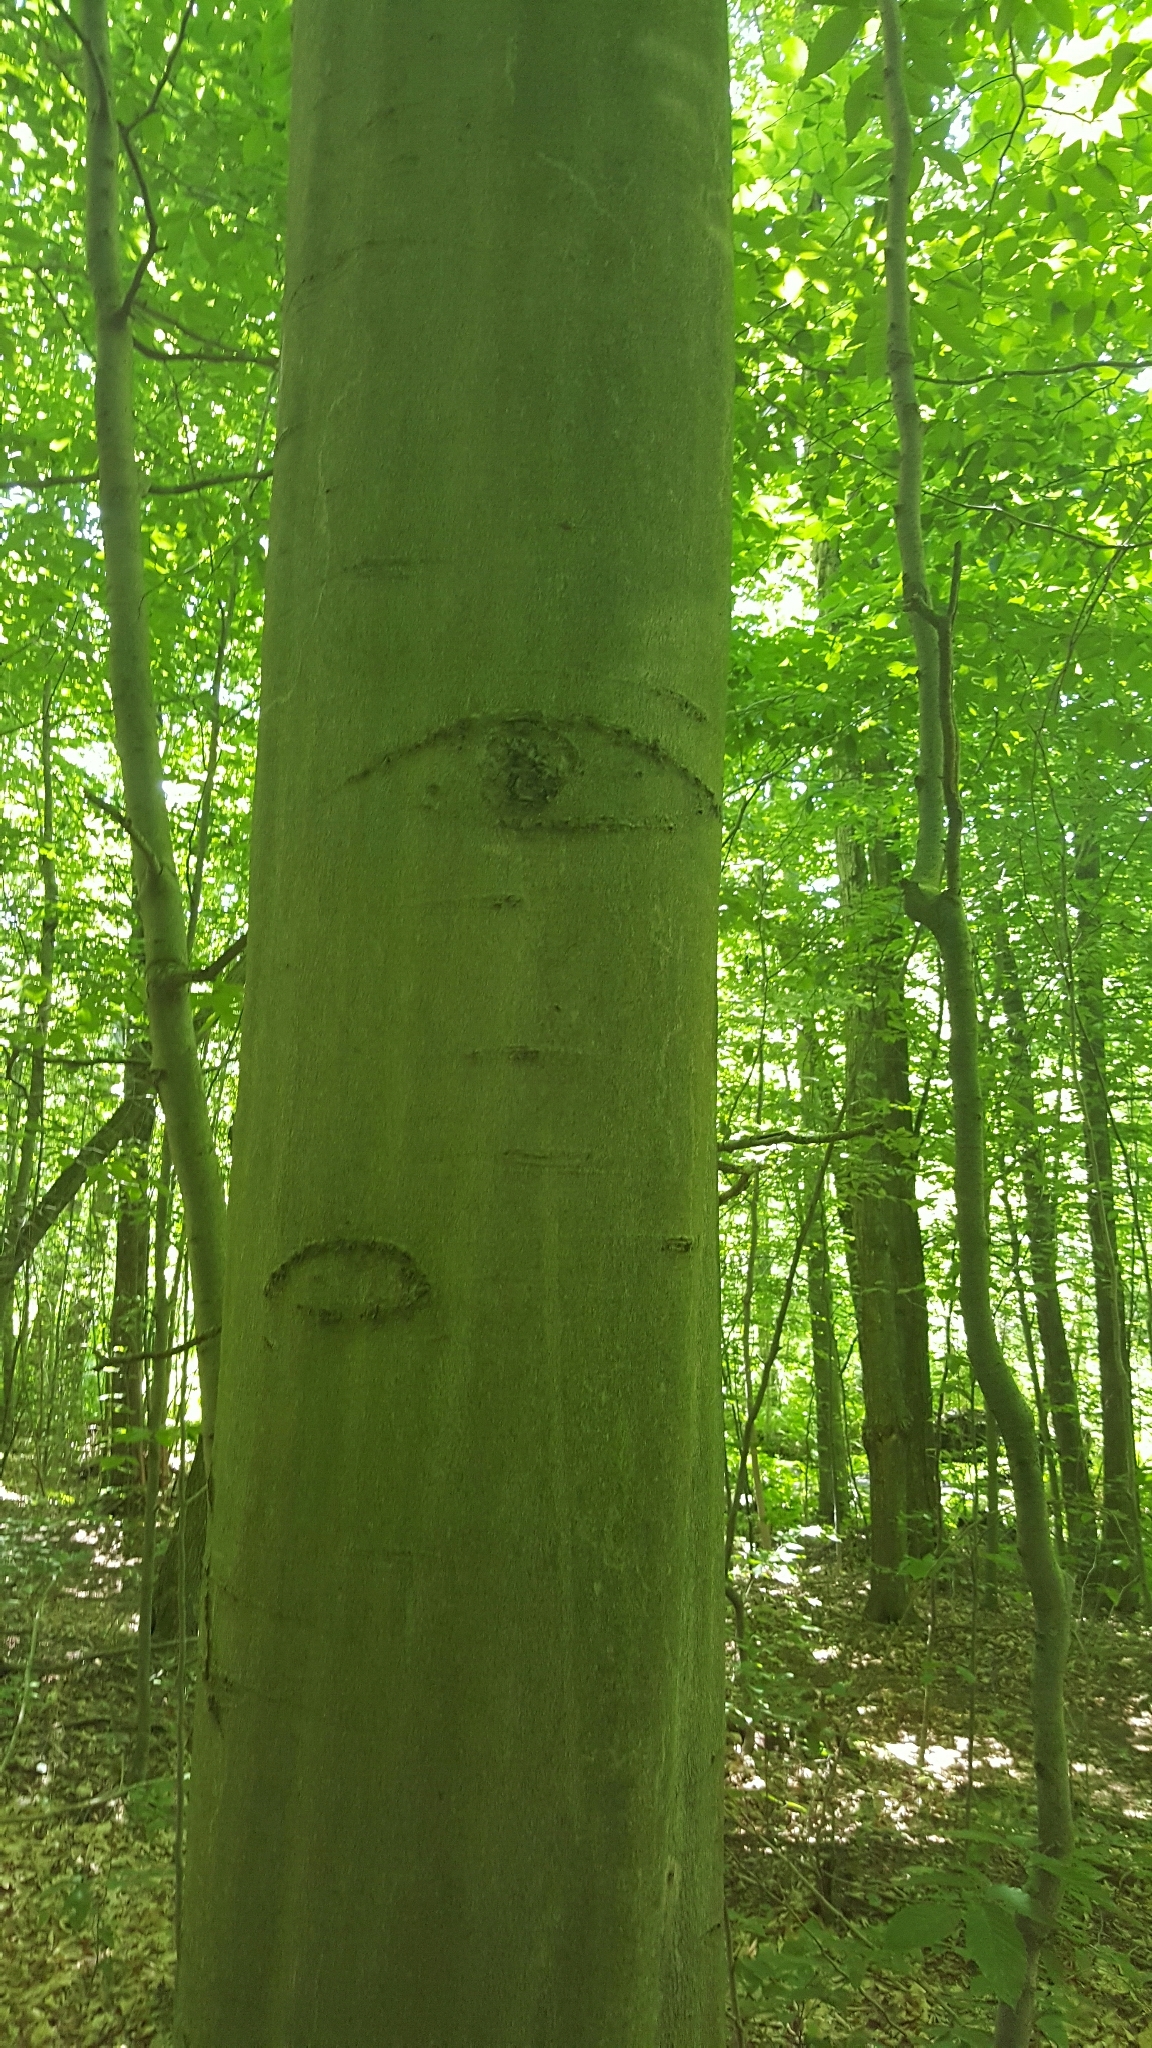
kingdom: Plantae
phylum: Tracheophyta
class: Magnoliopsida
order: Fagales
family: Fagaceae
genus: Fagus
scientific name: Fagus grandifolia
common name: American beech
